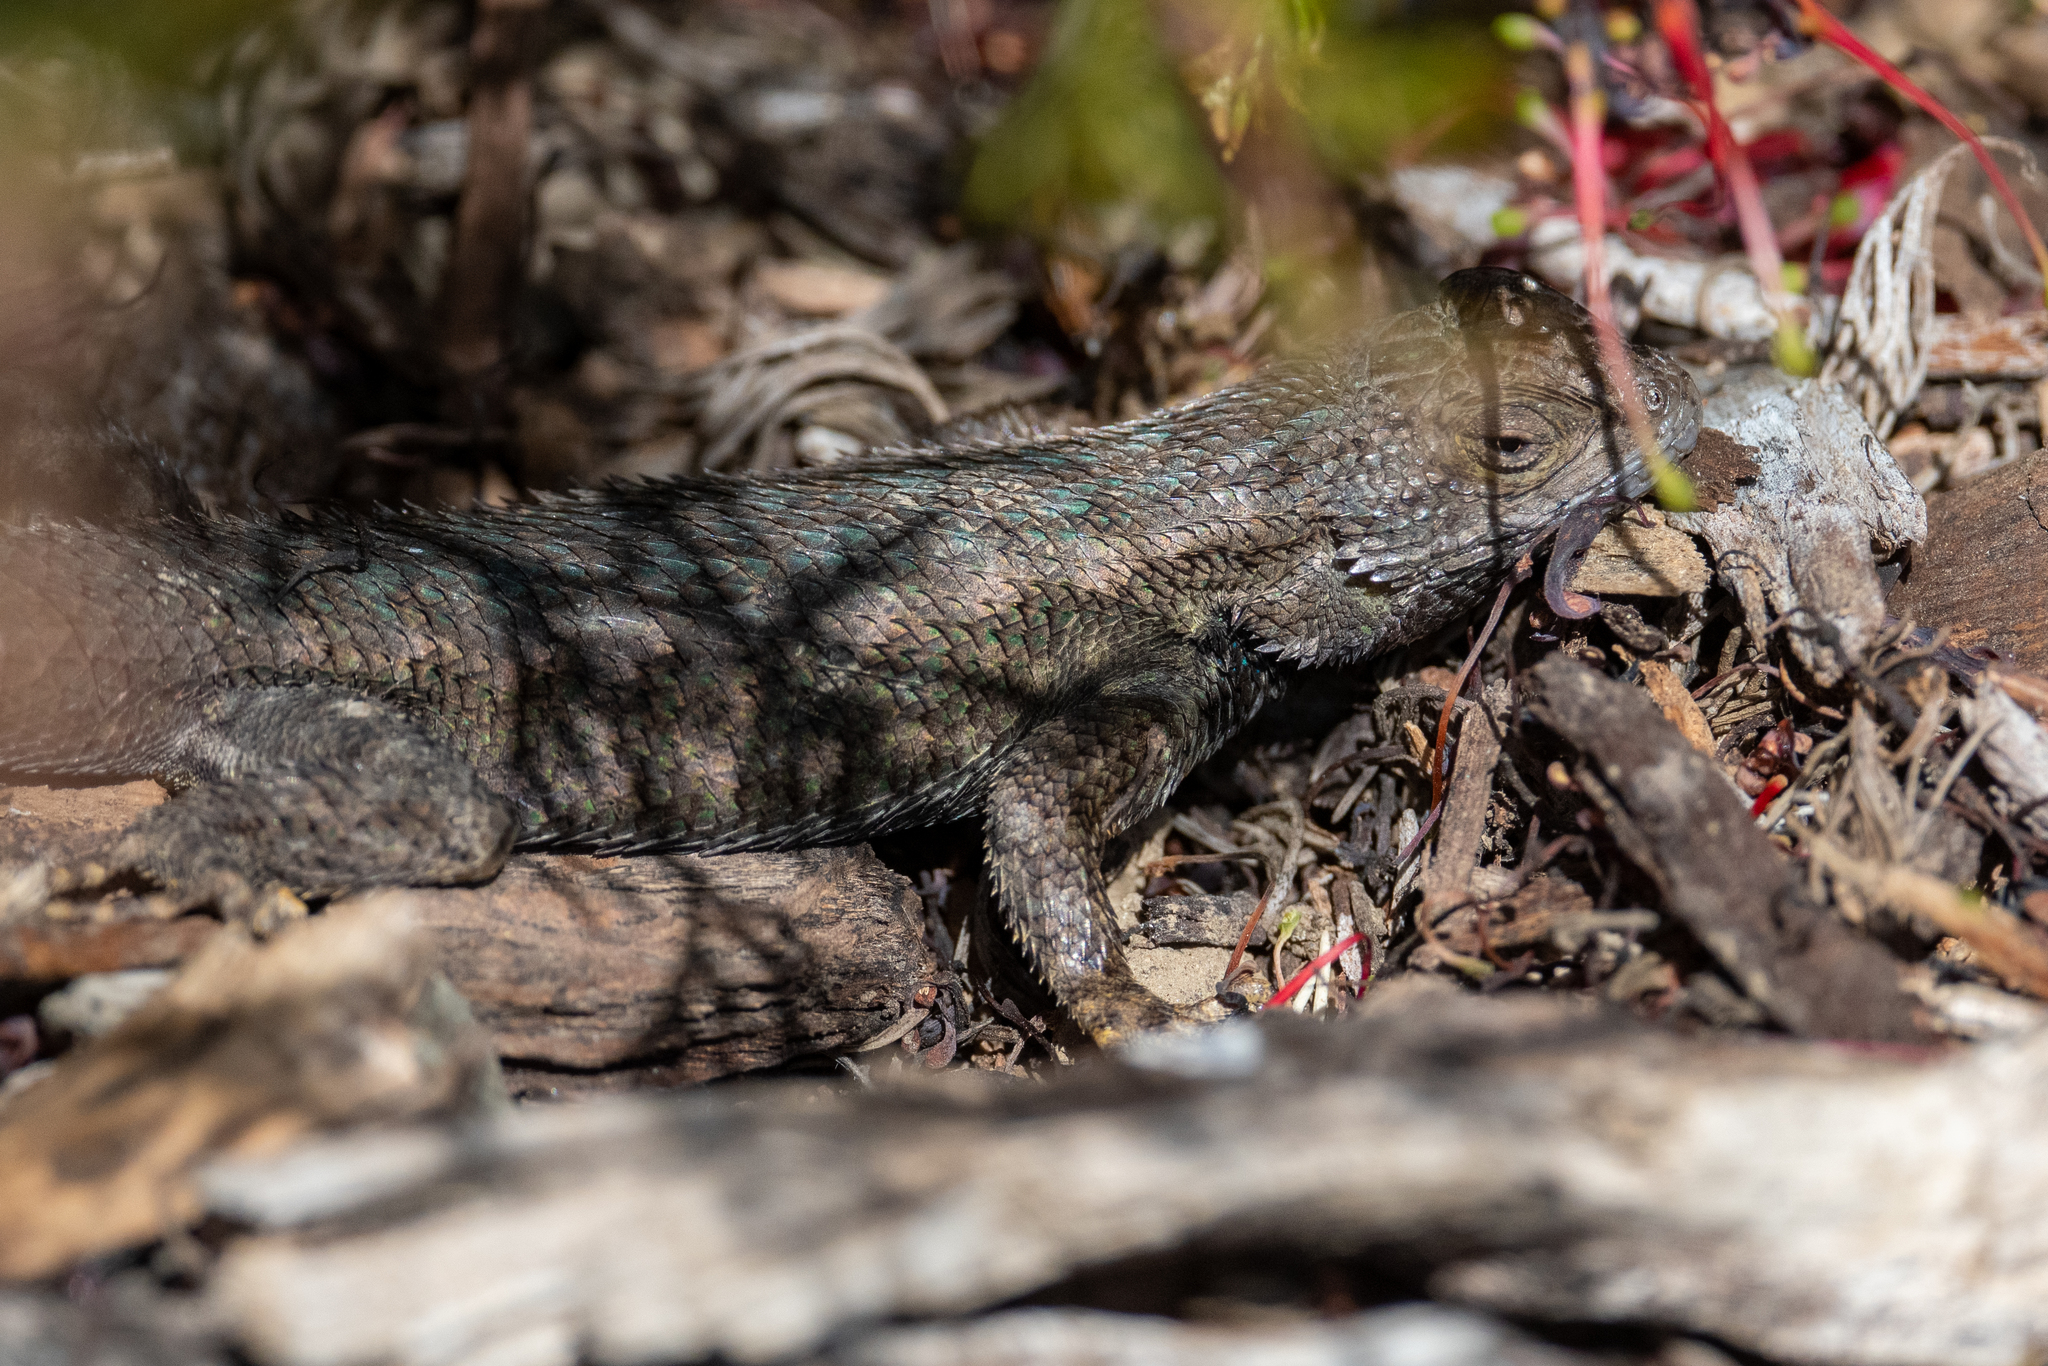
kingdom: Animalia
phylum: Chordata
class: Squamata
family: Phrynosomatidae
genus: Sceloporus
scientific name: Sceloporus occidentalis
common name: Western fence lizard
